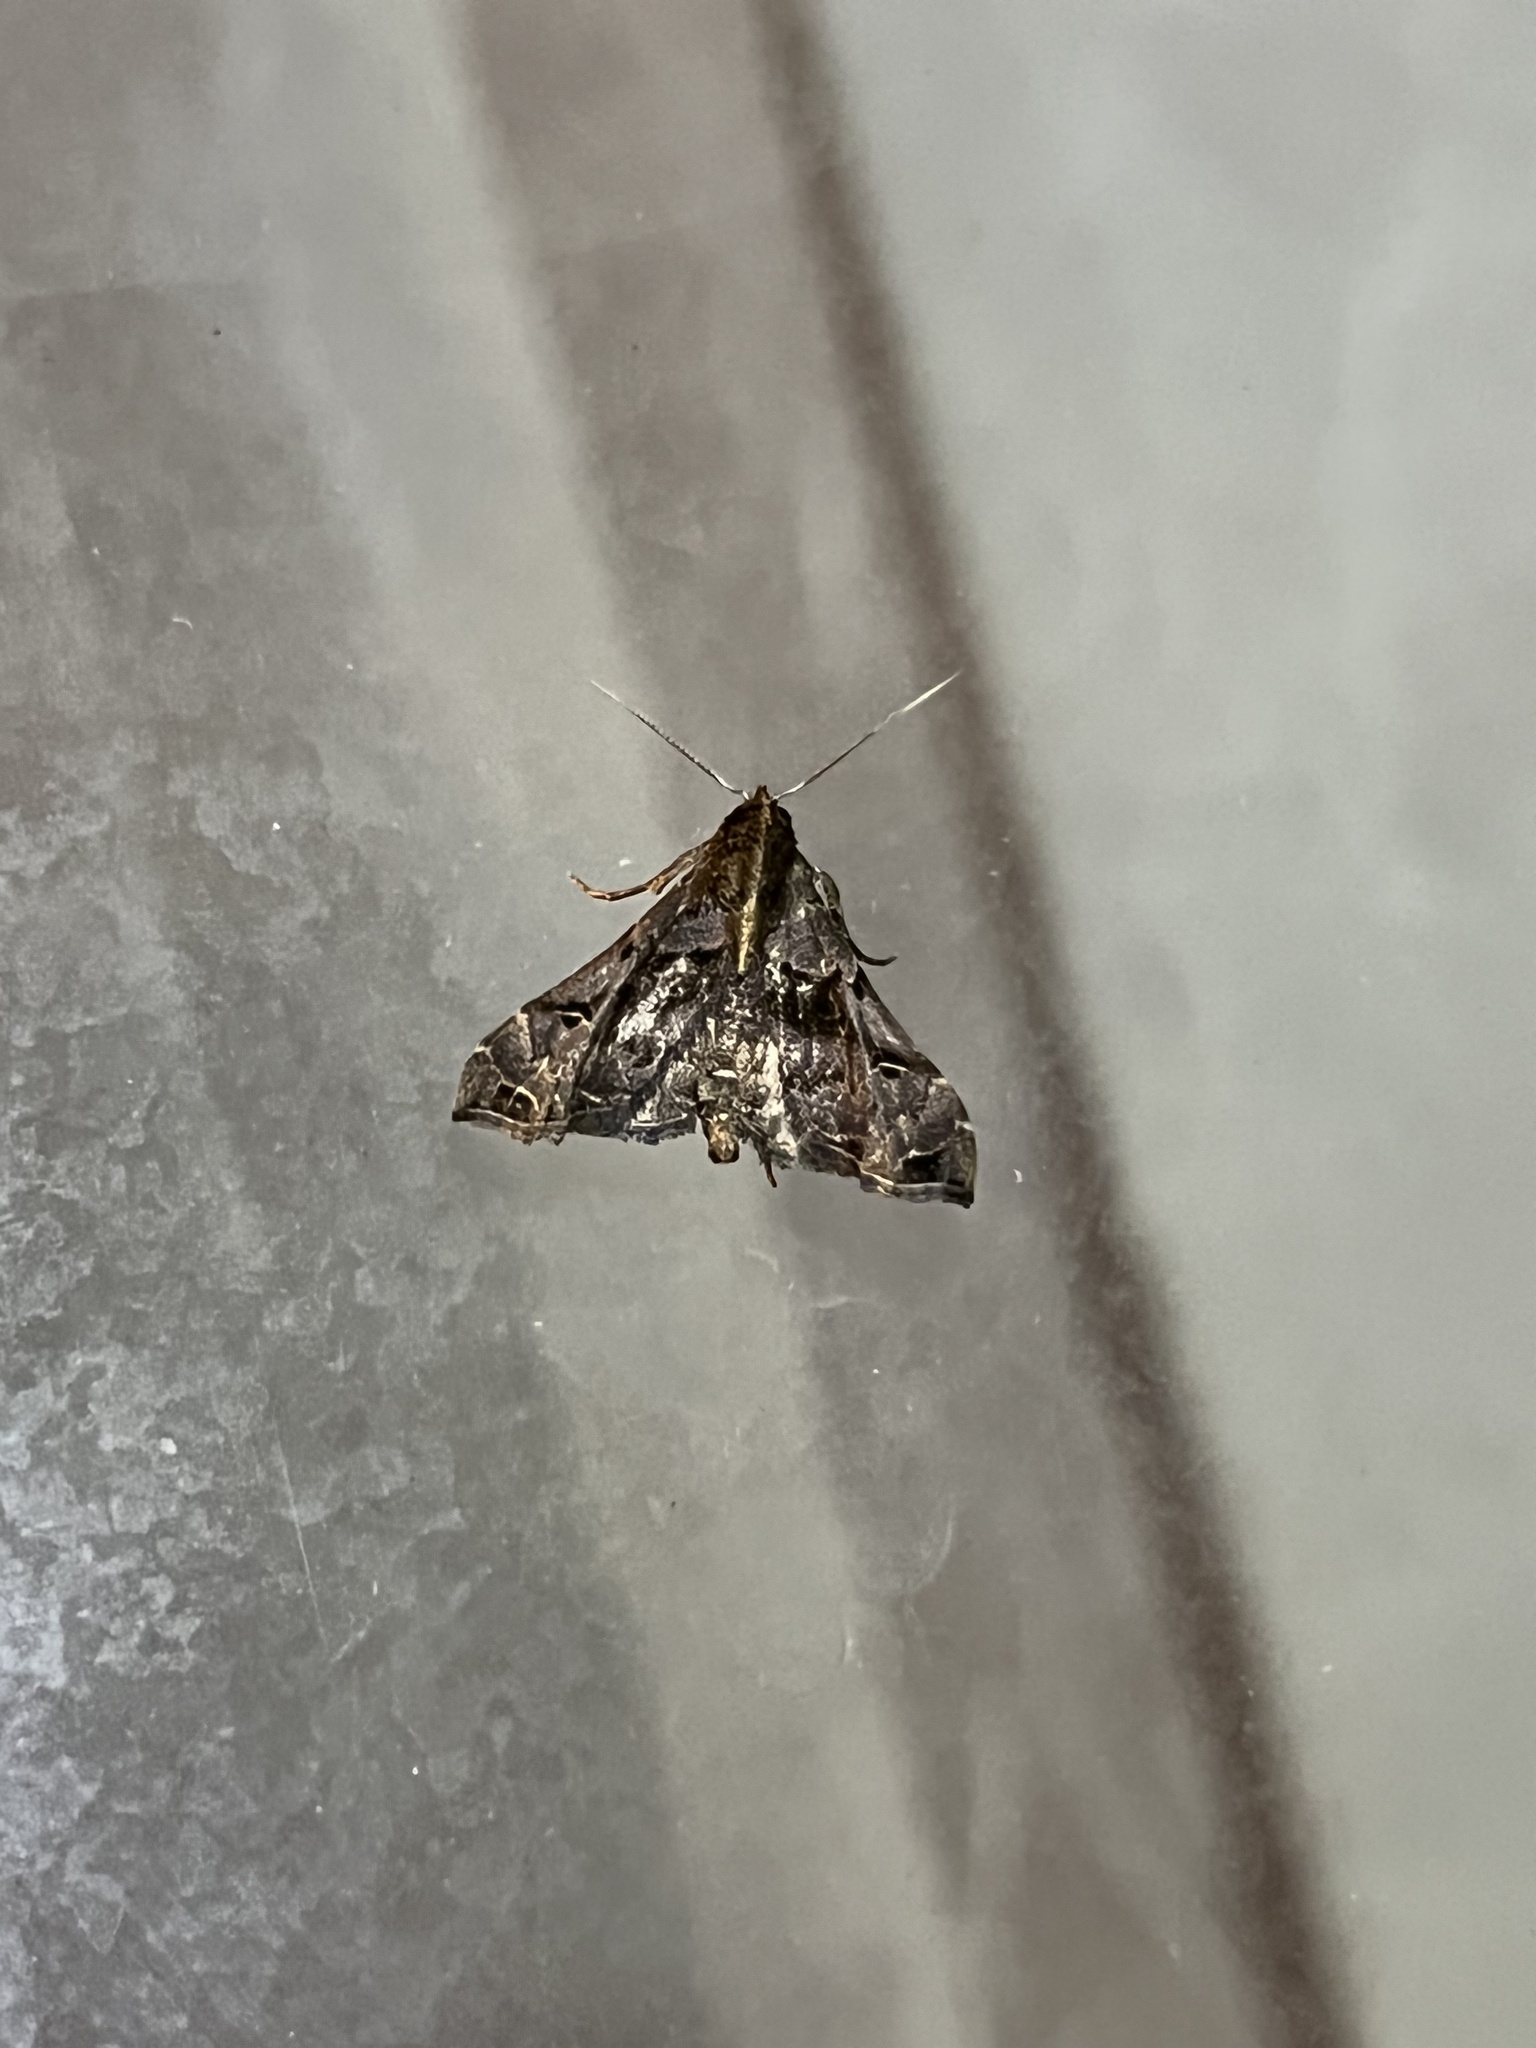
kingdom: Animalia
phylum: Arthropoda
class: Insecta
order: Lepidoptera
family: Erebidae
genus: Palthis
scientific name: Palthis asopialis
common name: Faint-spotted palthis moth
